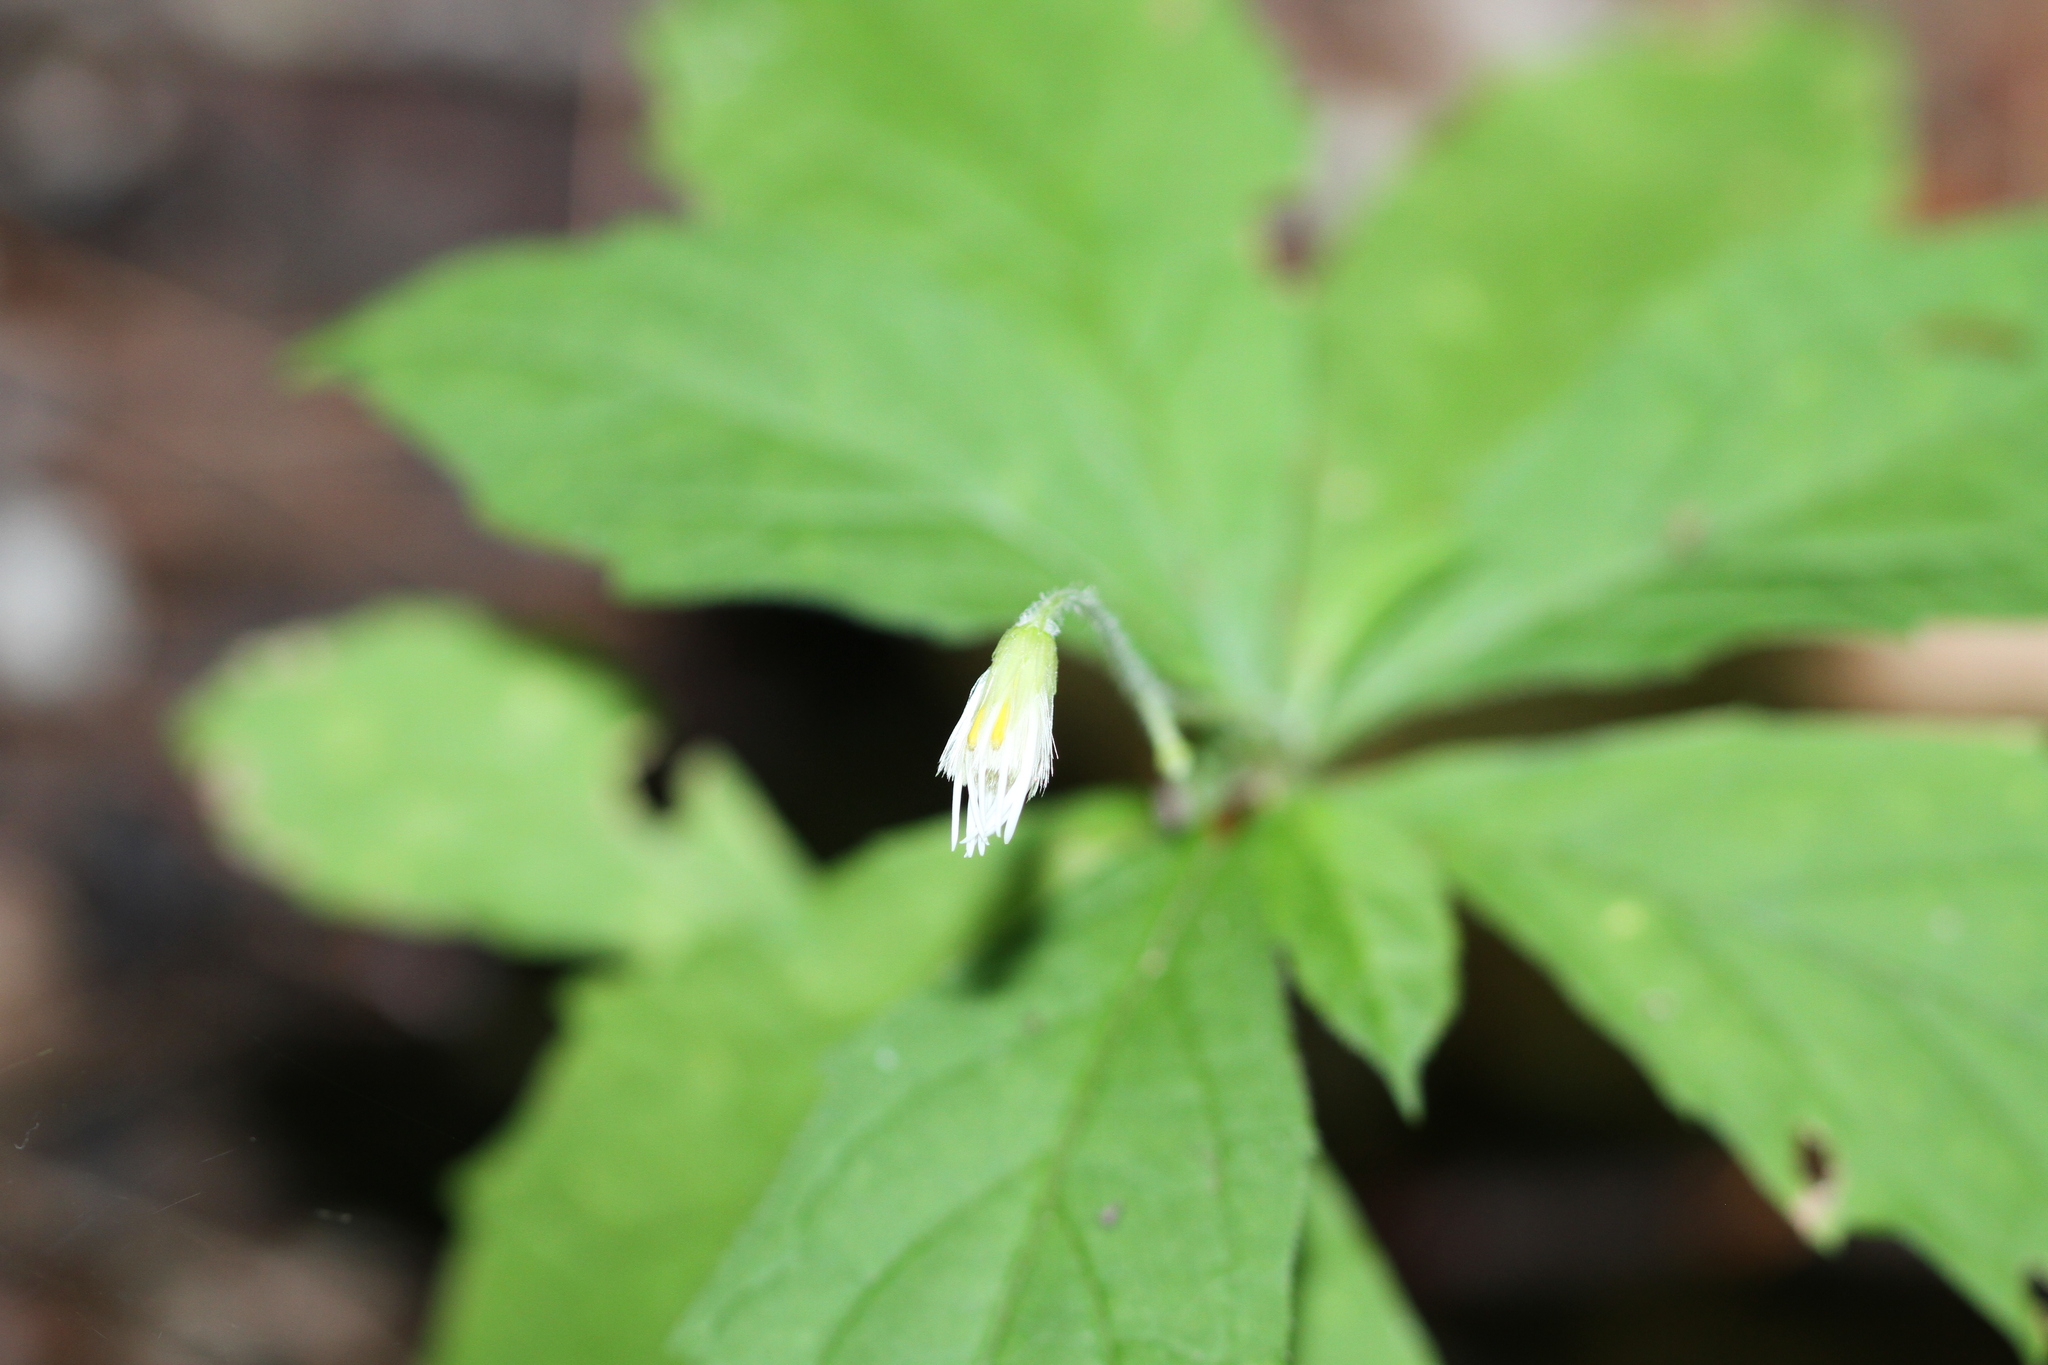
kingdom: Plantae
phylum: Tracheophyta
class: Magnoliopsida
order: Asterales
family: Asteraceae
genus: Oclemena
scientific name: Oclemena acuminata
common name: Mountain aster
